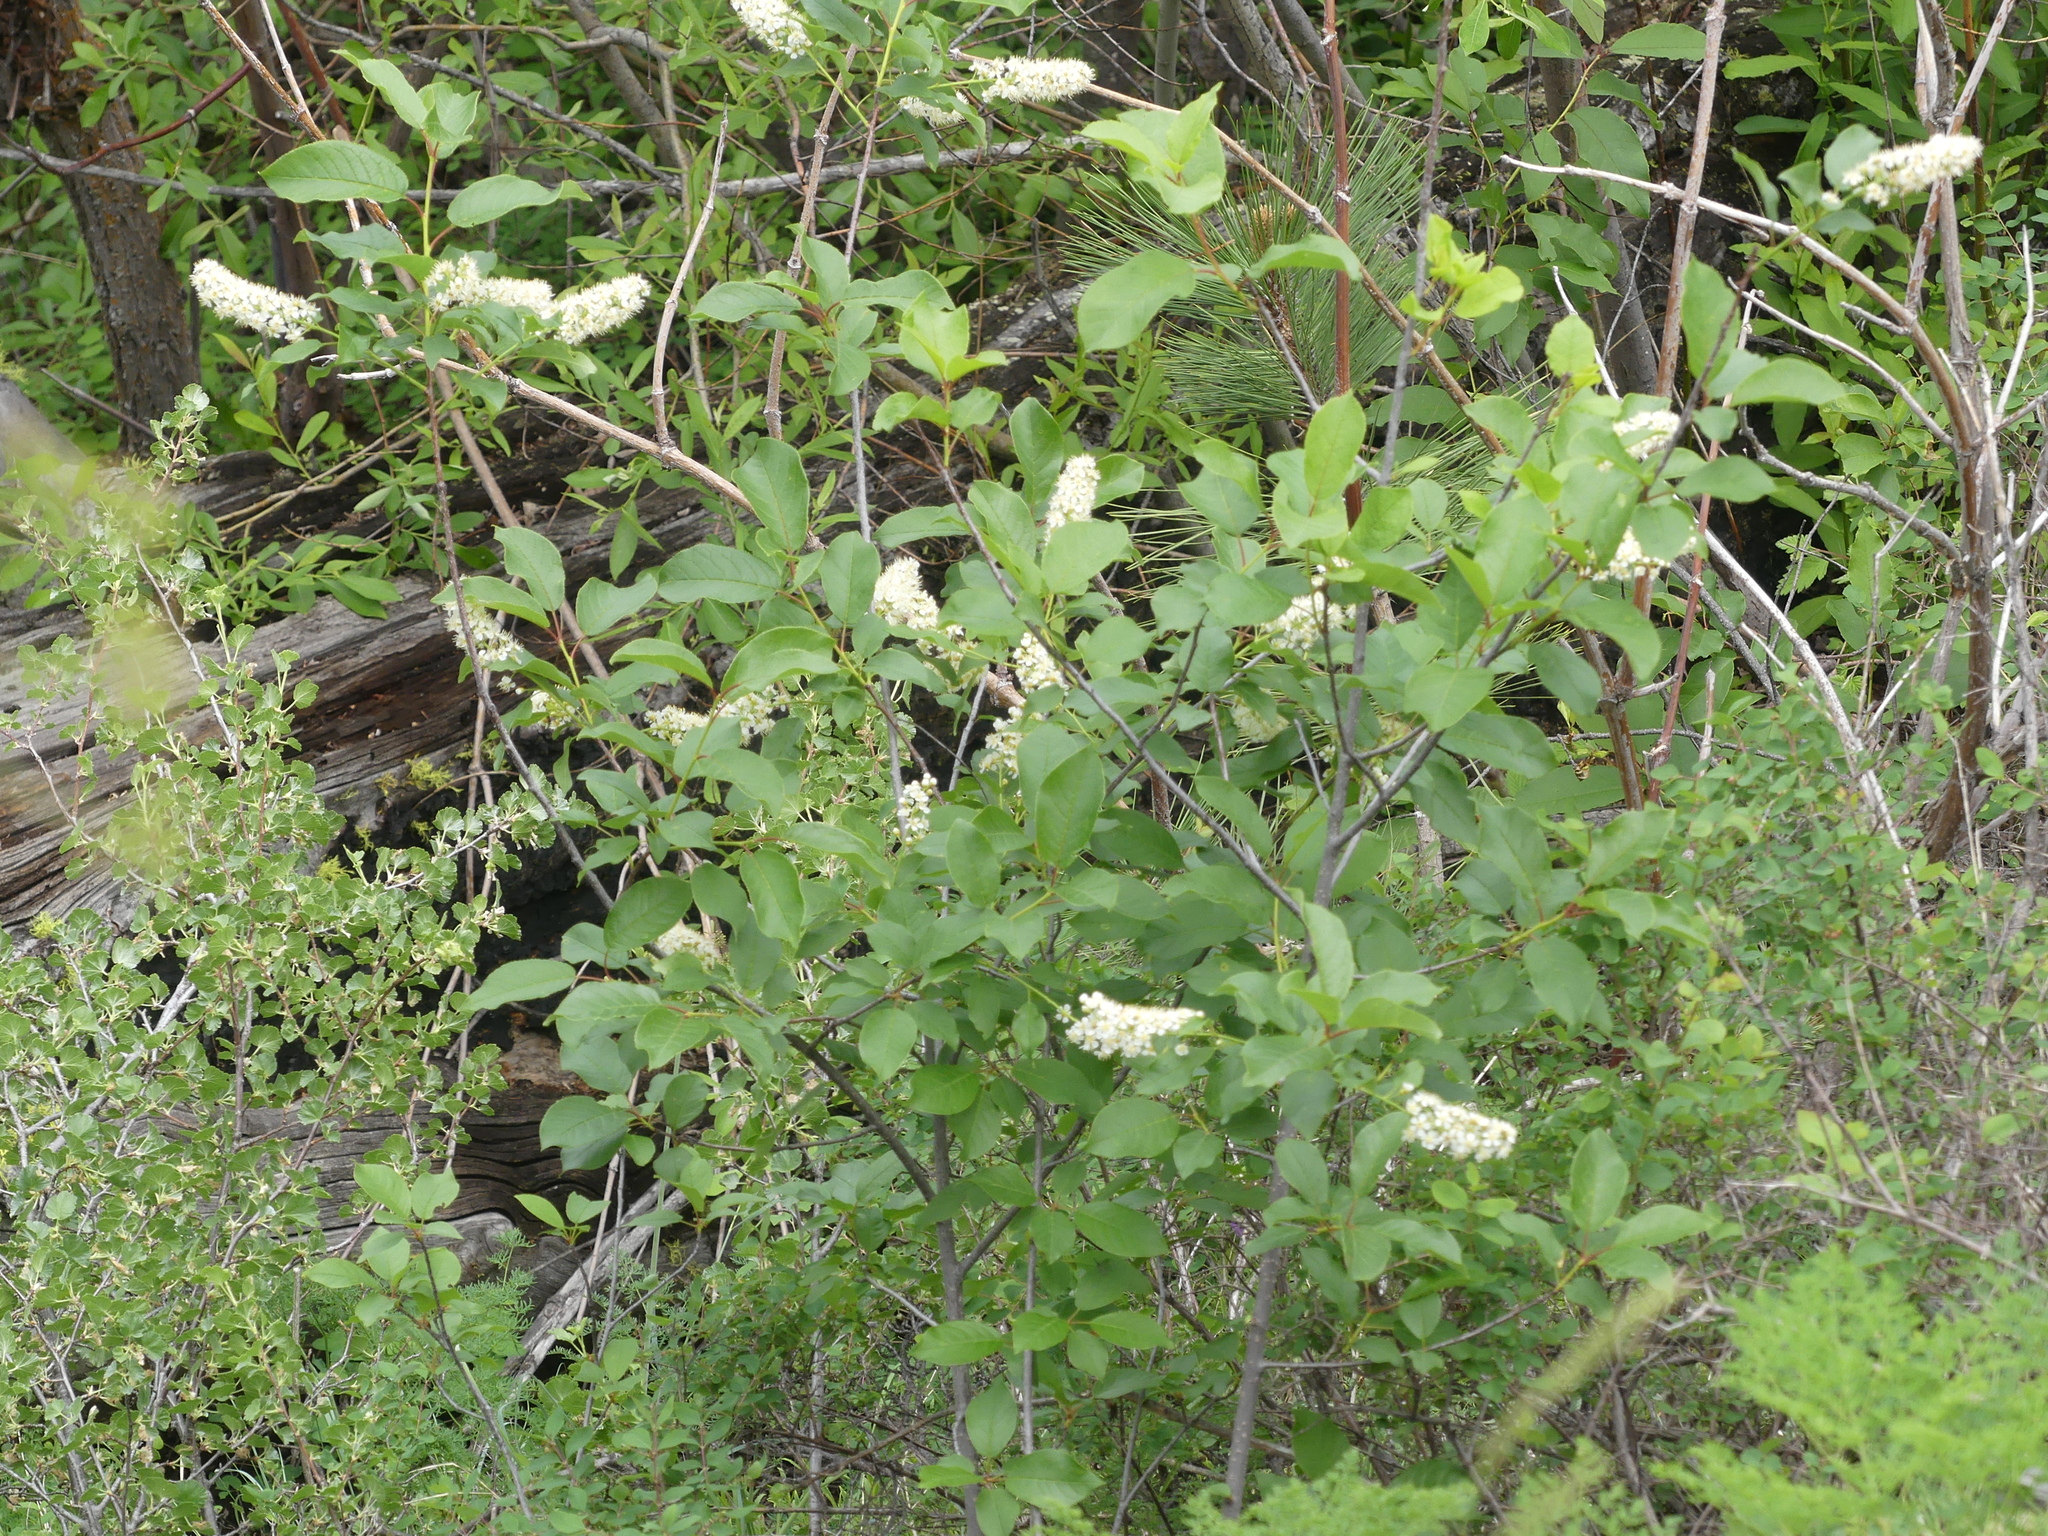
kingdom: Plantae
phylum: Tracheophyta
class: Magnoliopsida
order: Rosales
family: Rosaceae
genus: Prunus
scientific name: Prunus virginiana
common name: Chokecherry
